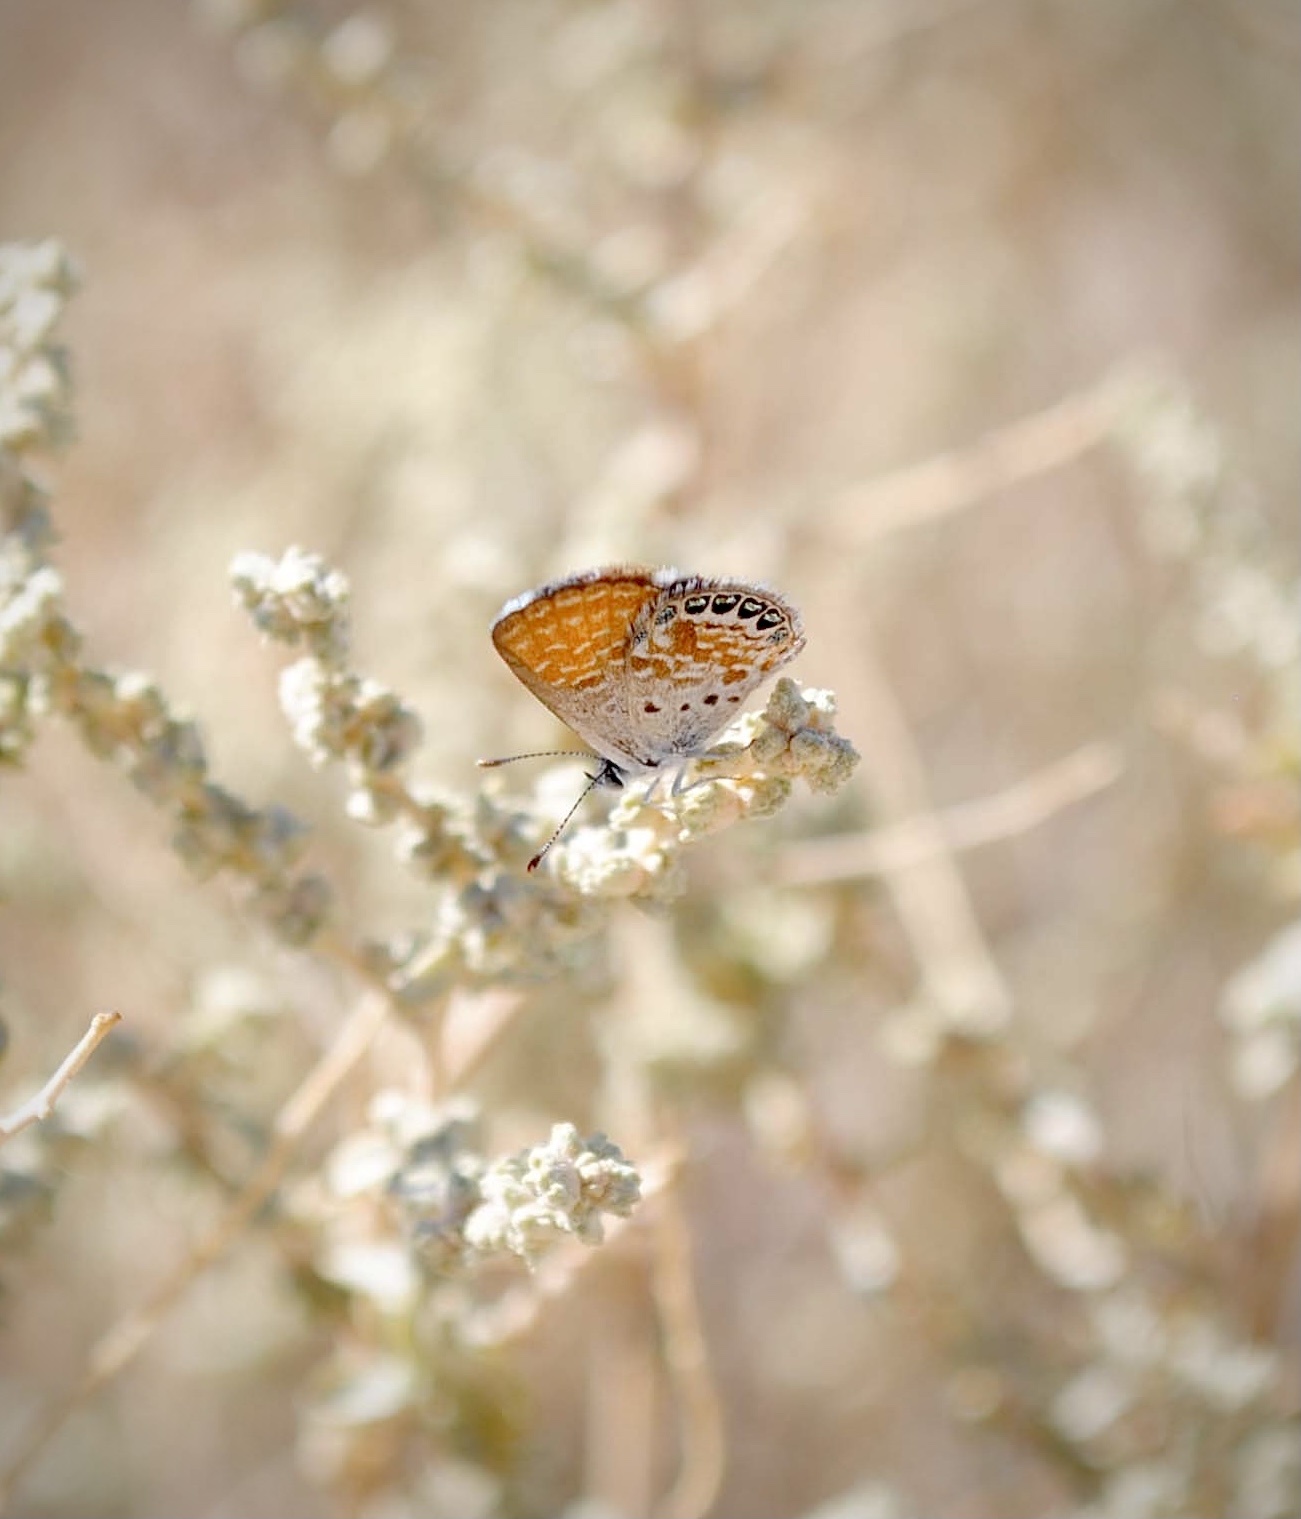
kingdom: Animalia
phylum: Arthropoda
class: Insecta
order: Lepidoptera
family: Lycaenidae
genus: Brephidium
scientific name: Brephidium exilis
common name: Pygmy blue
